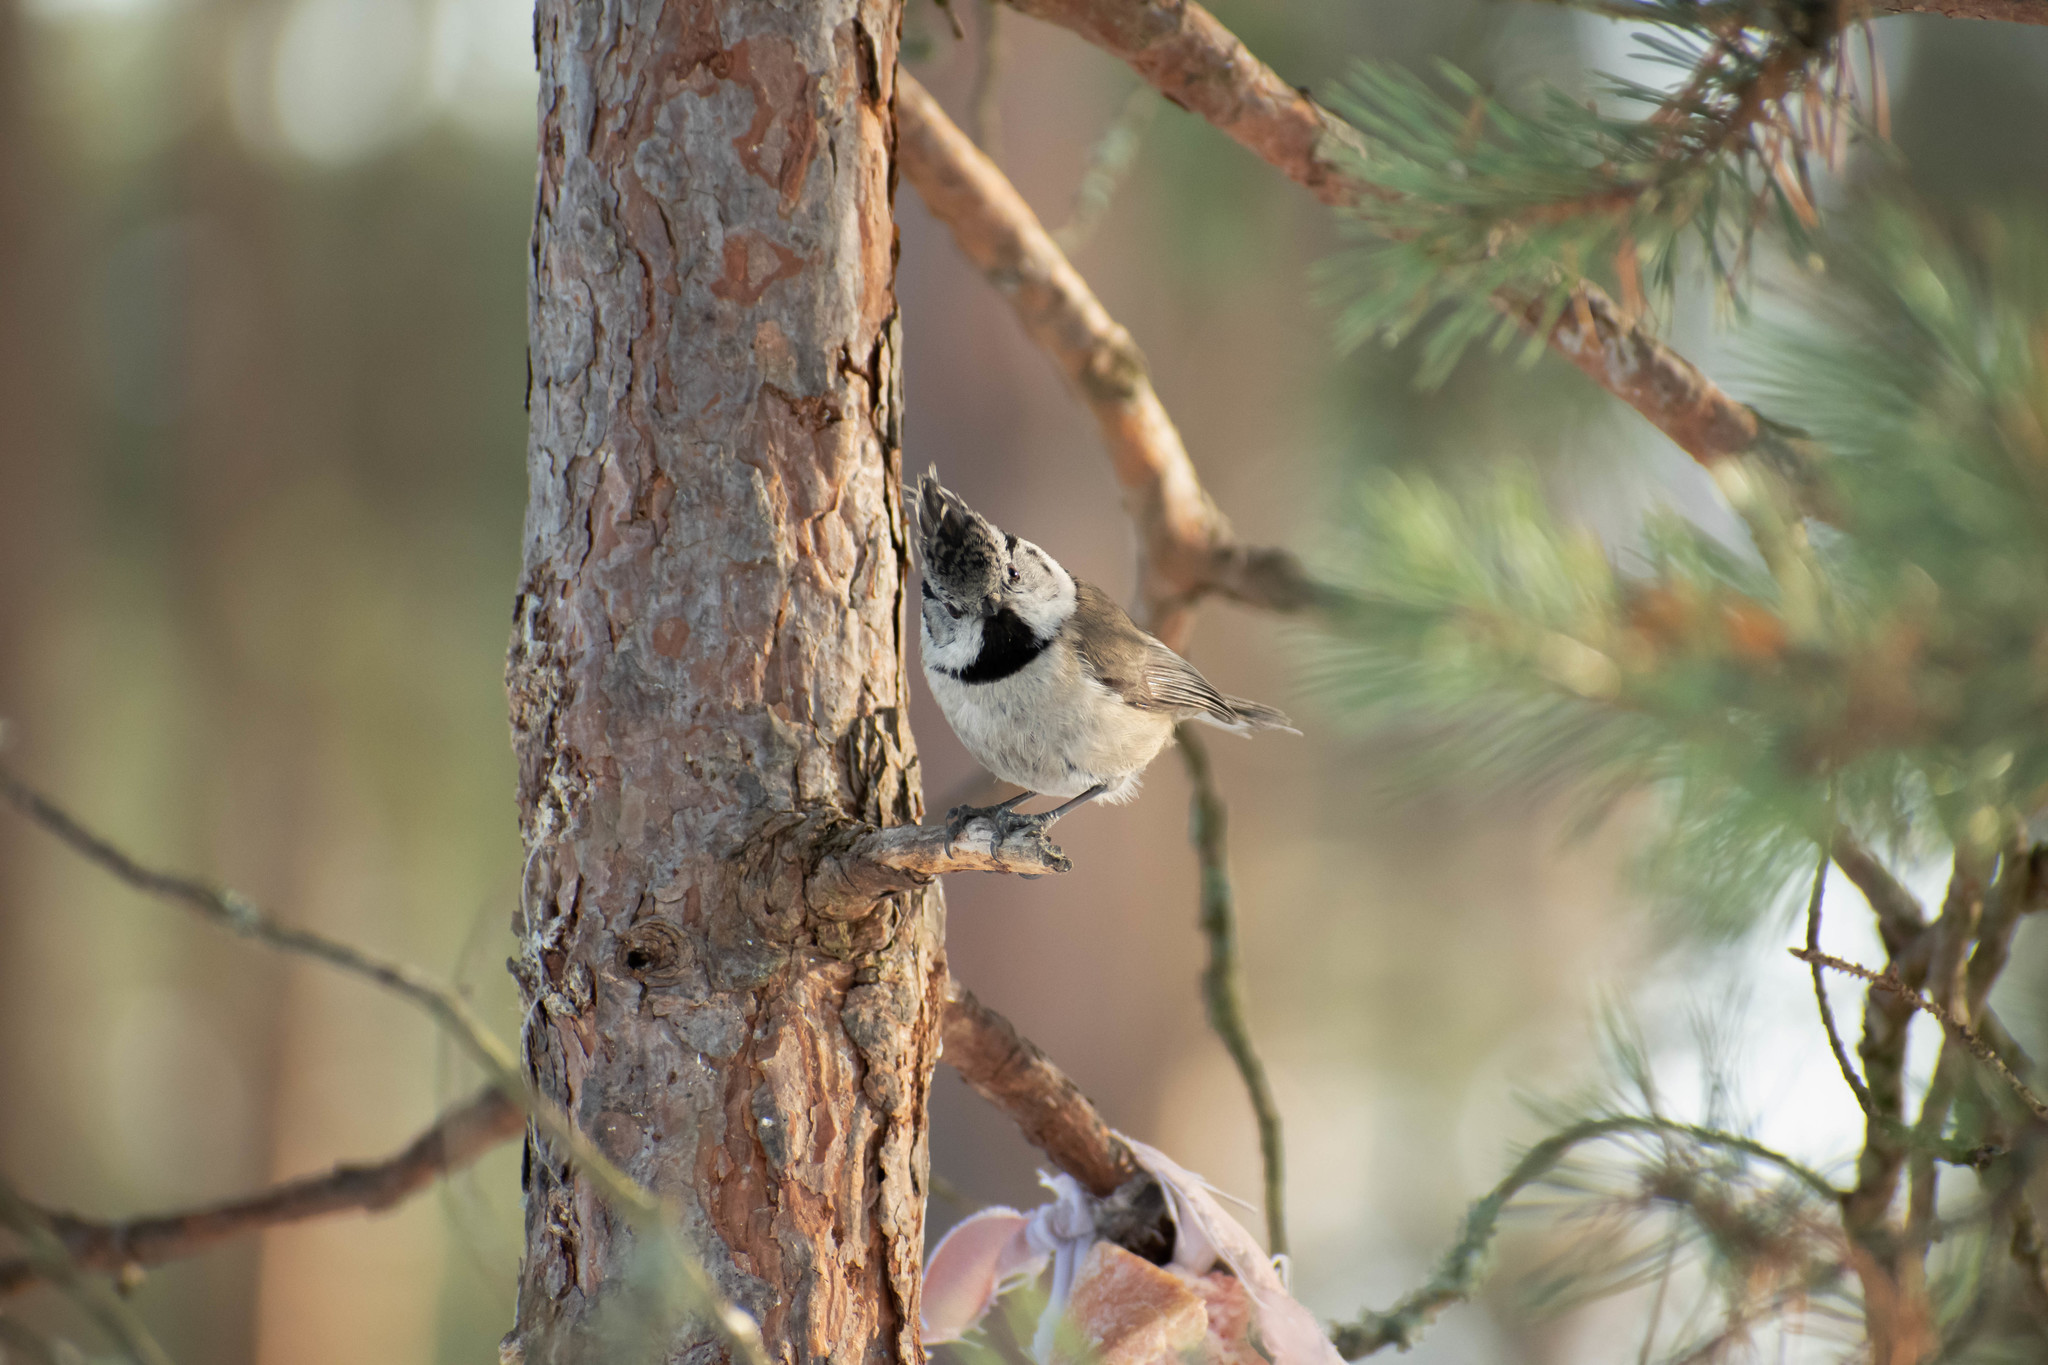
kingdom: Animalia
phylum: Chordata
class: Aves
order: Passeriformes
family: Paridae
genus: Lophophanes
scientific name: Lophophanes cristatus
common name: European crested tit
